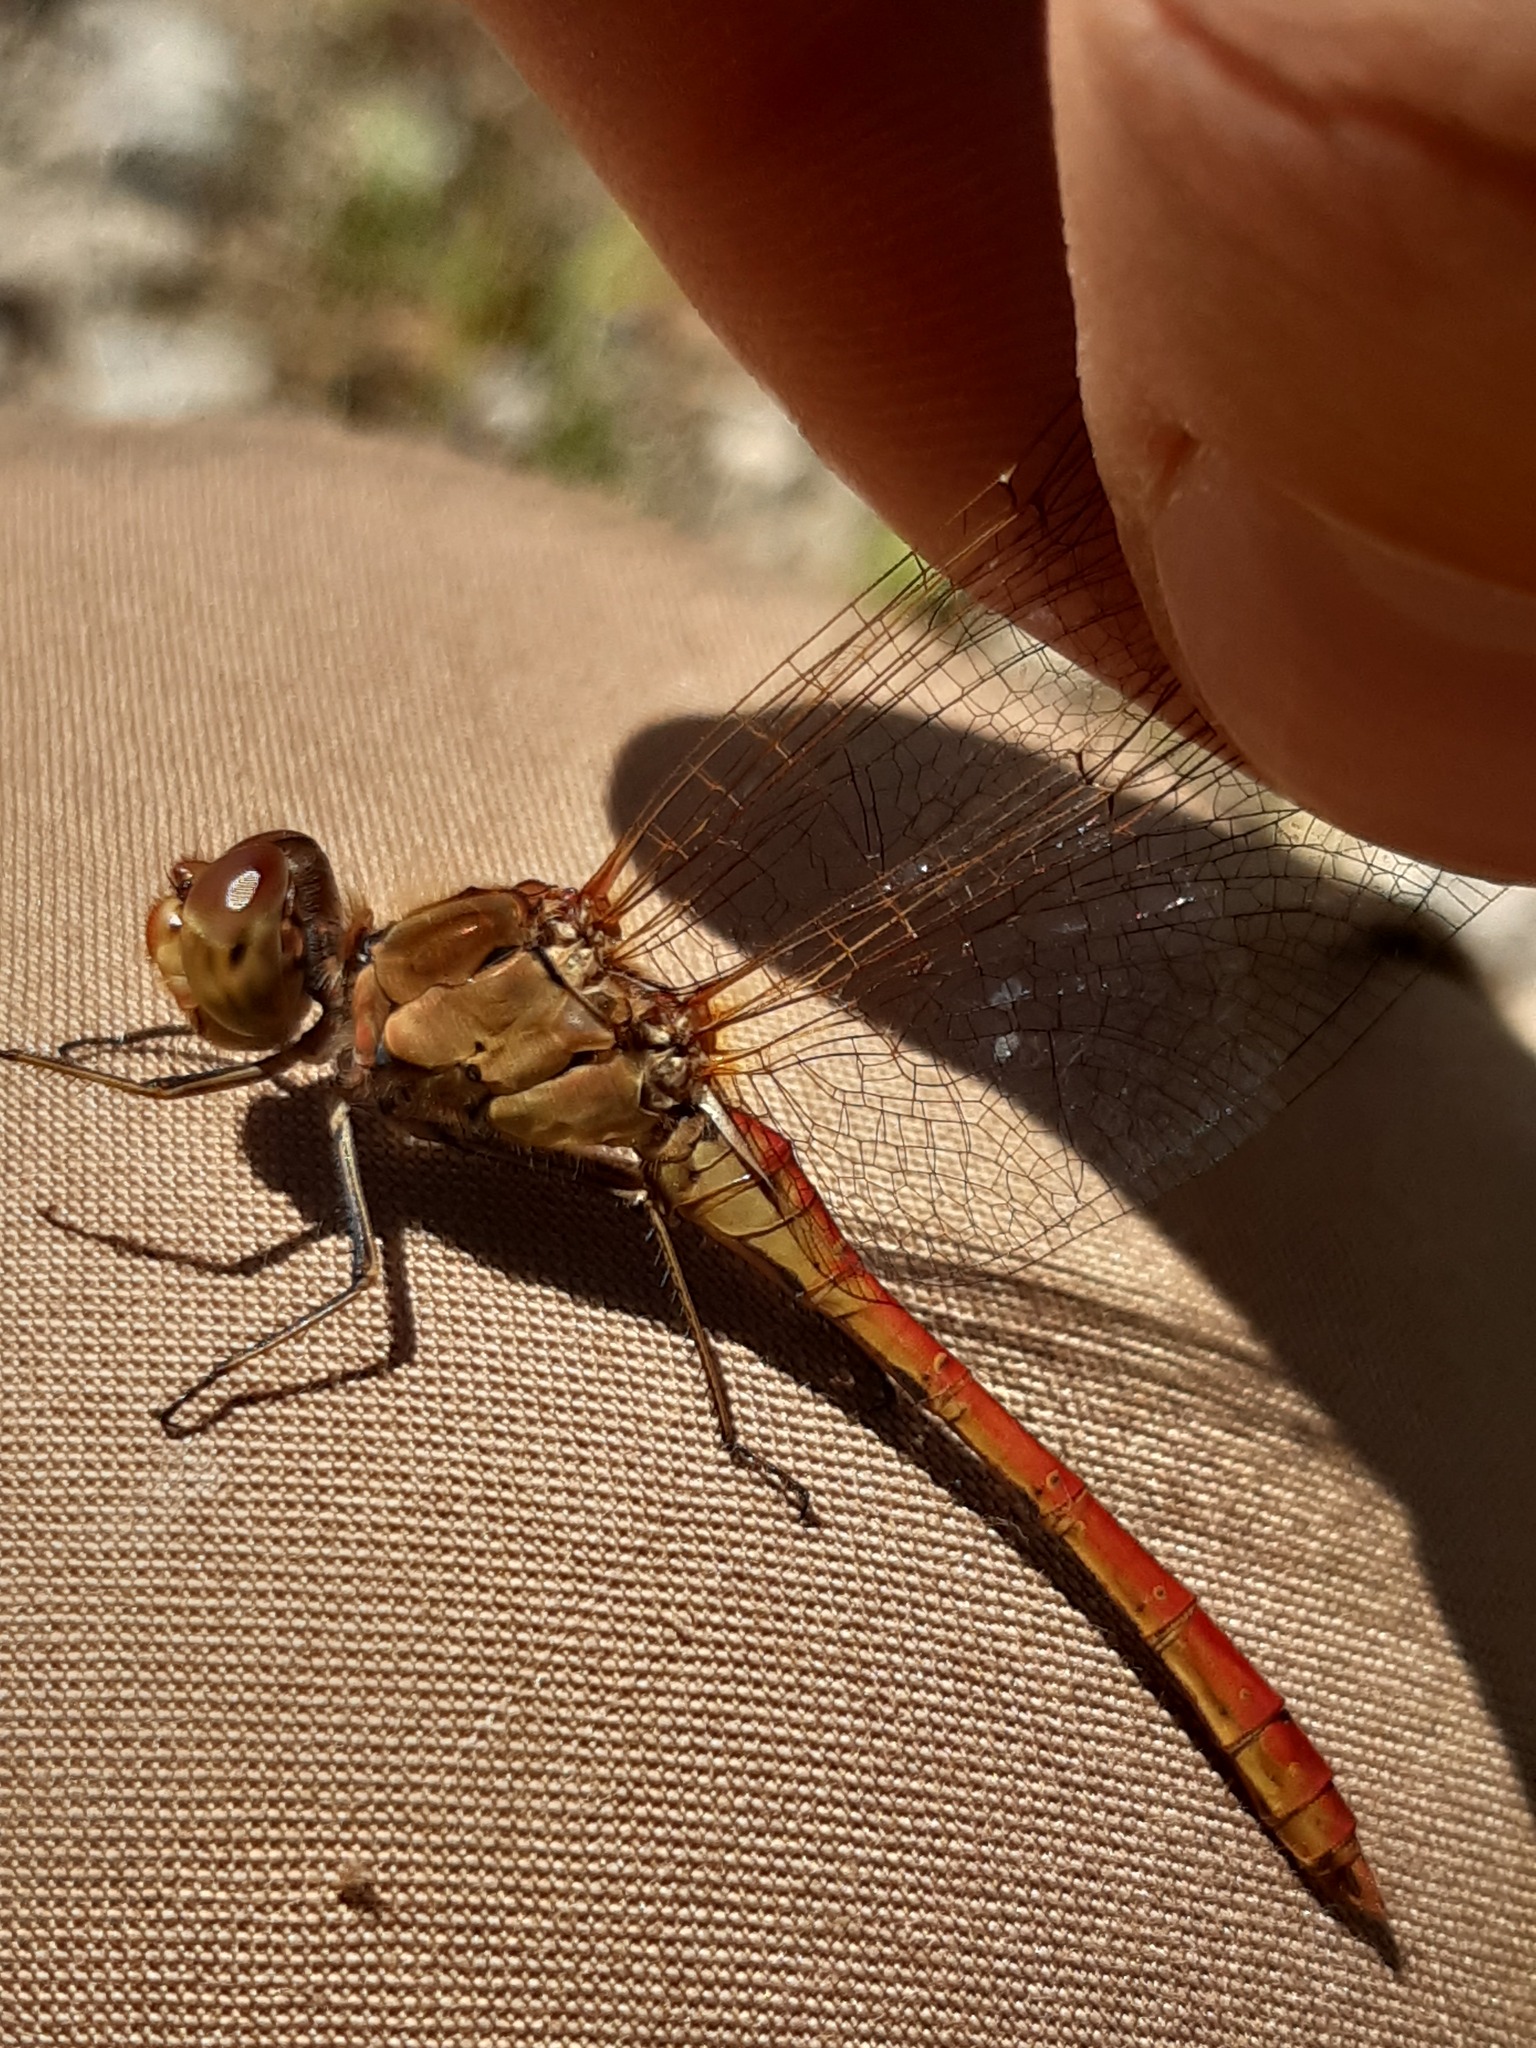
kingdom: Animalia
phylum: Arthropoda
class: Insecta
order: Odonata
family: Libellulidae
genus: Sympetrum
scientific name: Sympetrum meridionale
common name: Southern darter
